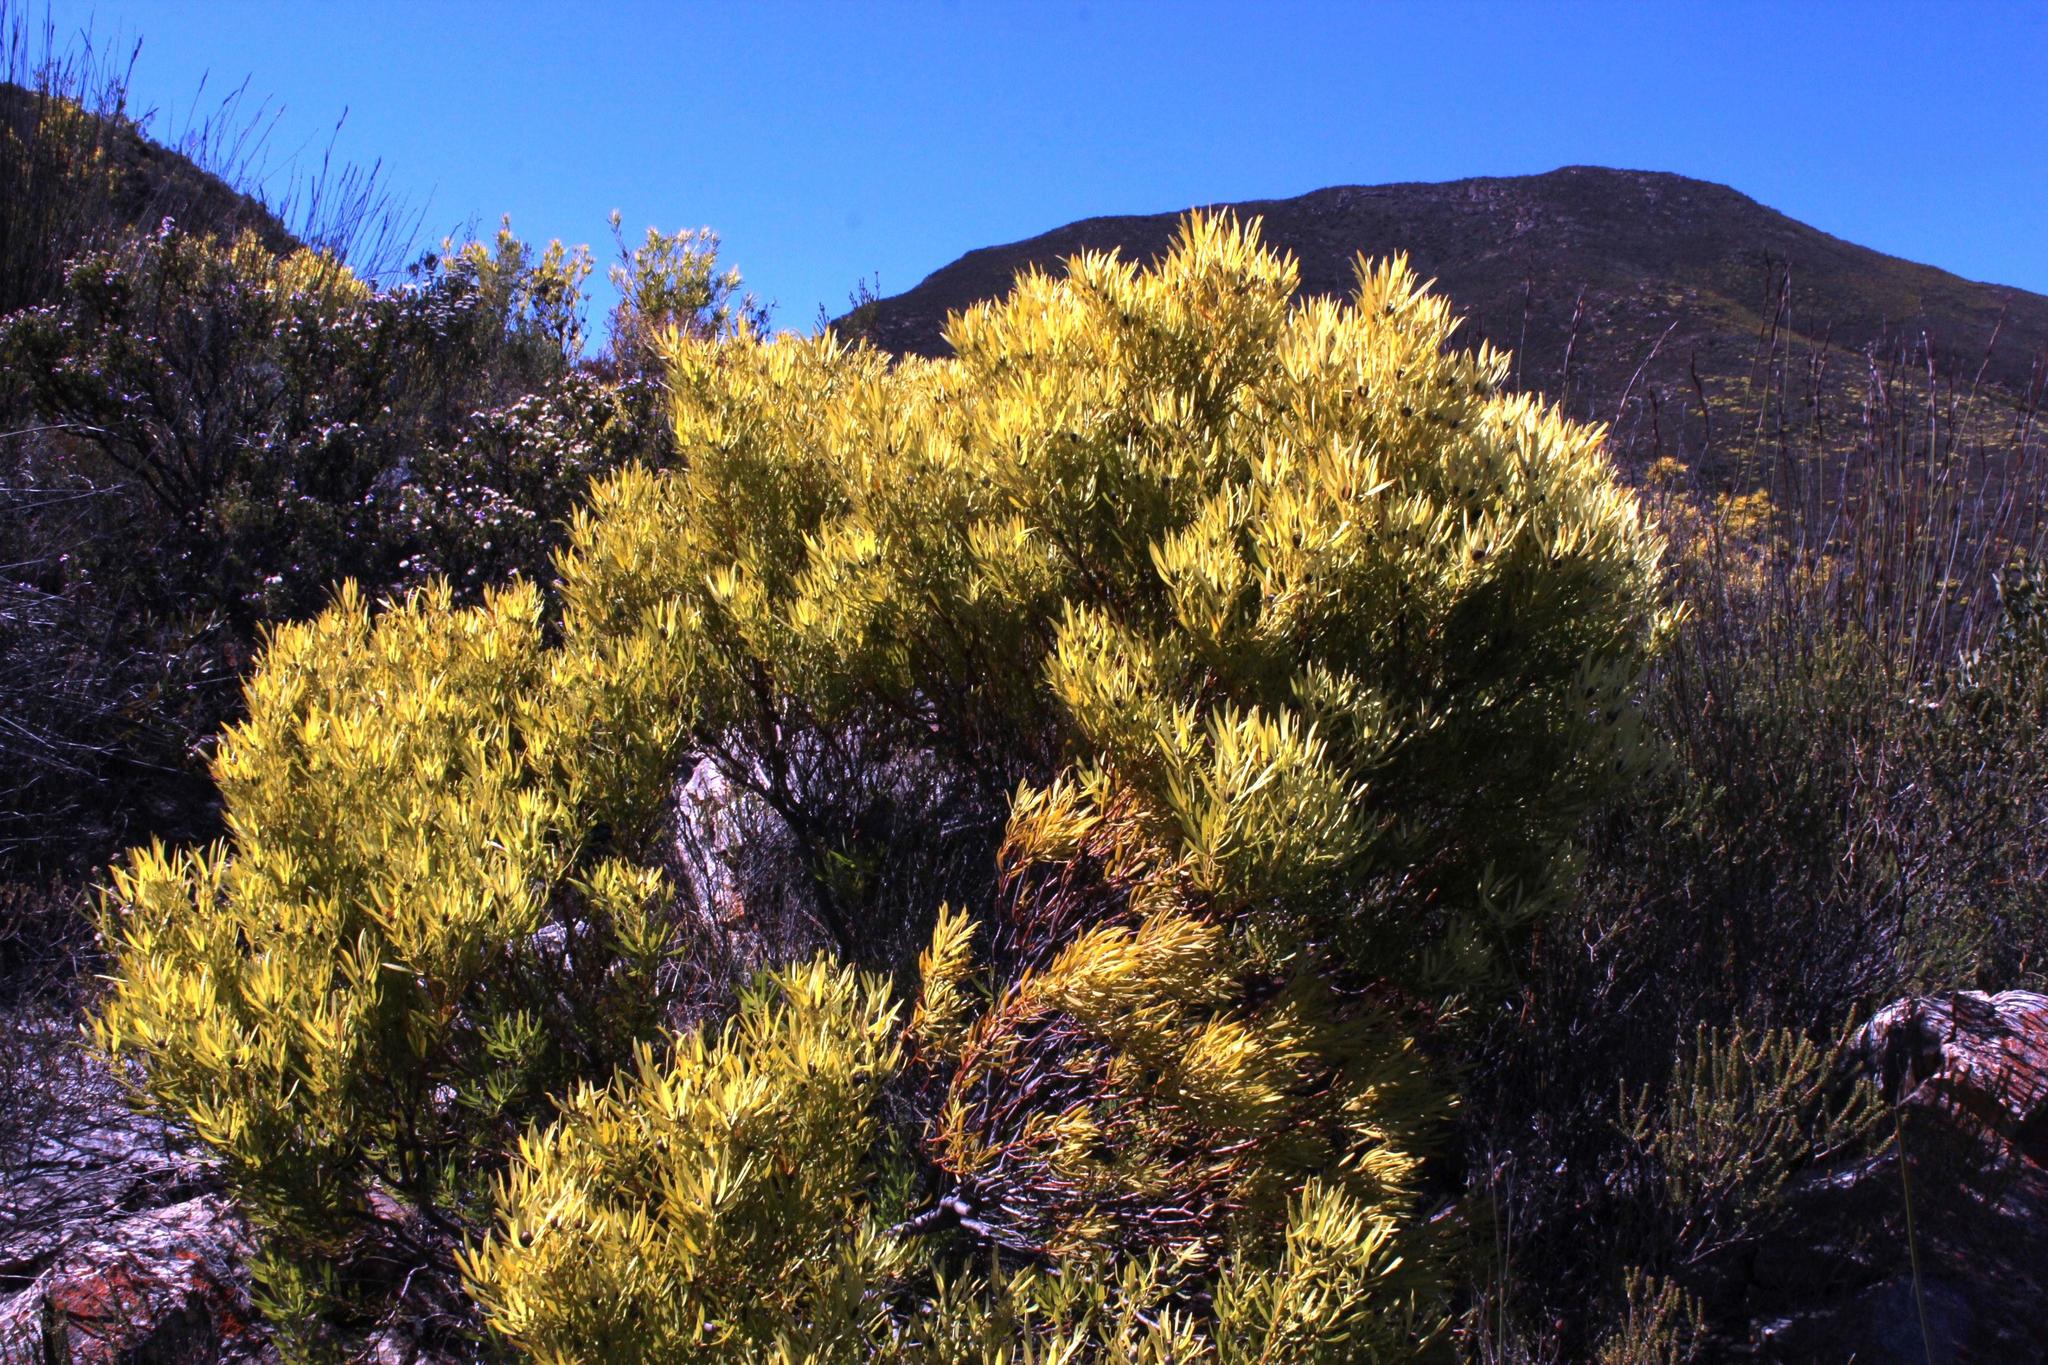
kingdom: Plantae
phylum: Tracheophyta
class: Magnoliopsida
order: Proteales
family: Proteaceae
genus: Leucadendron
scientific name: Leucadendron salignum
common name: Common sunshine conebush
